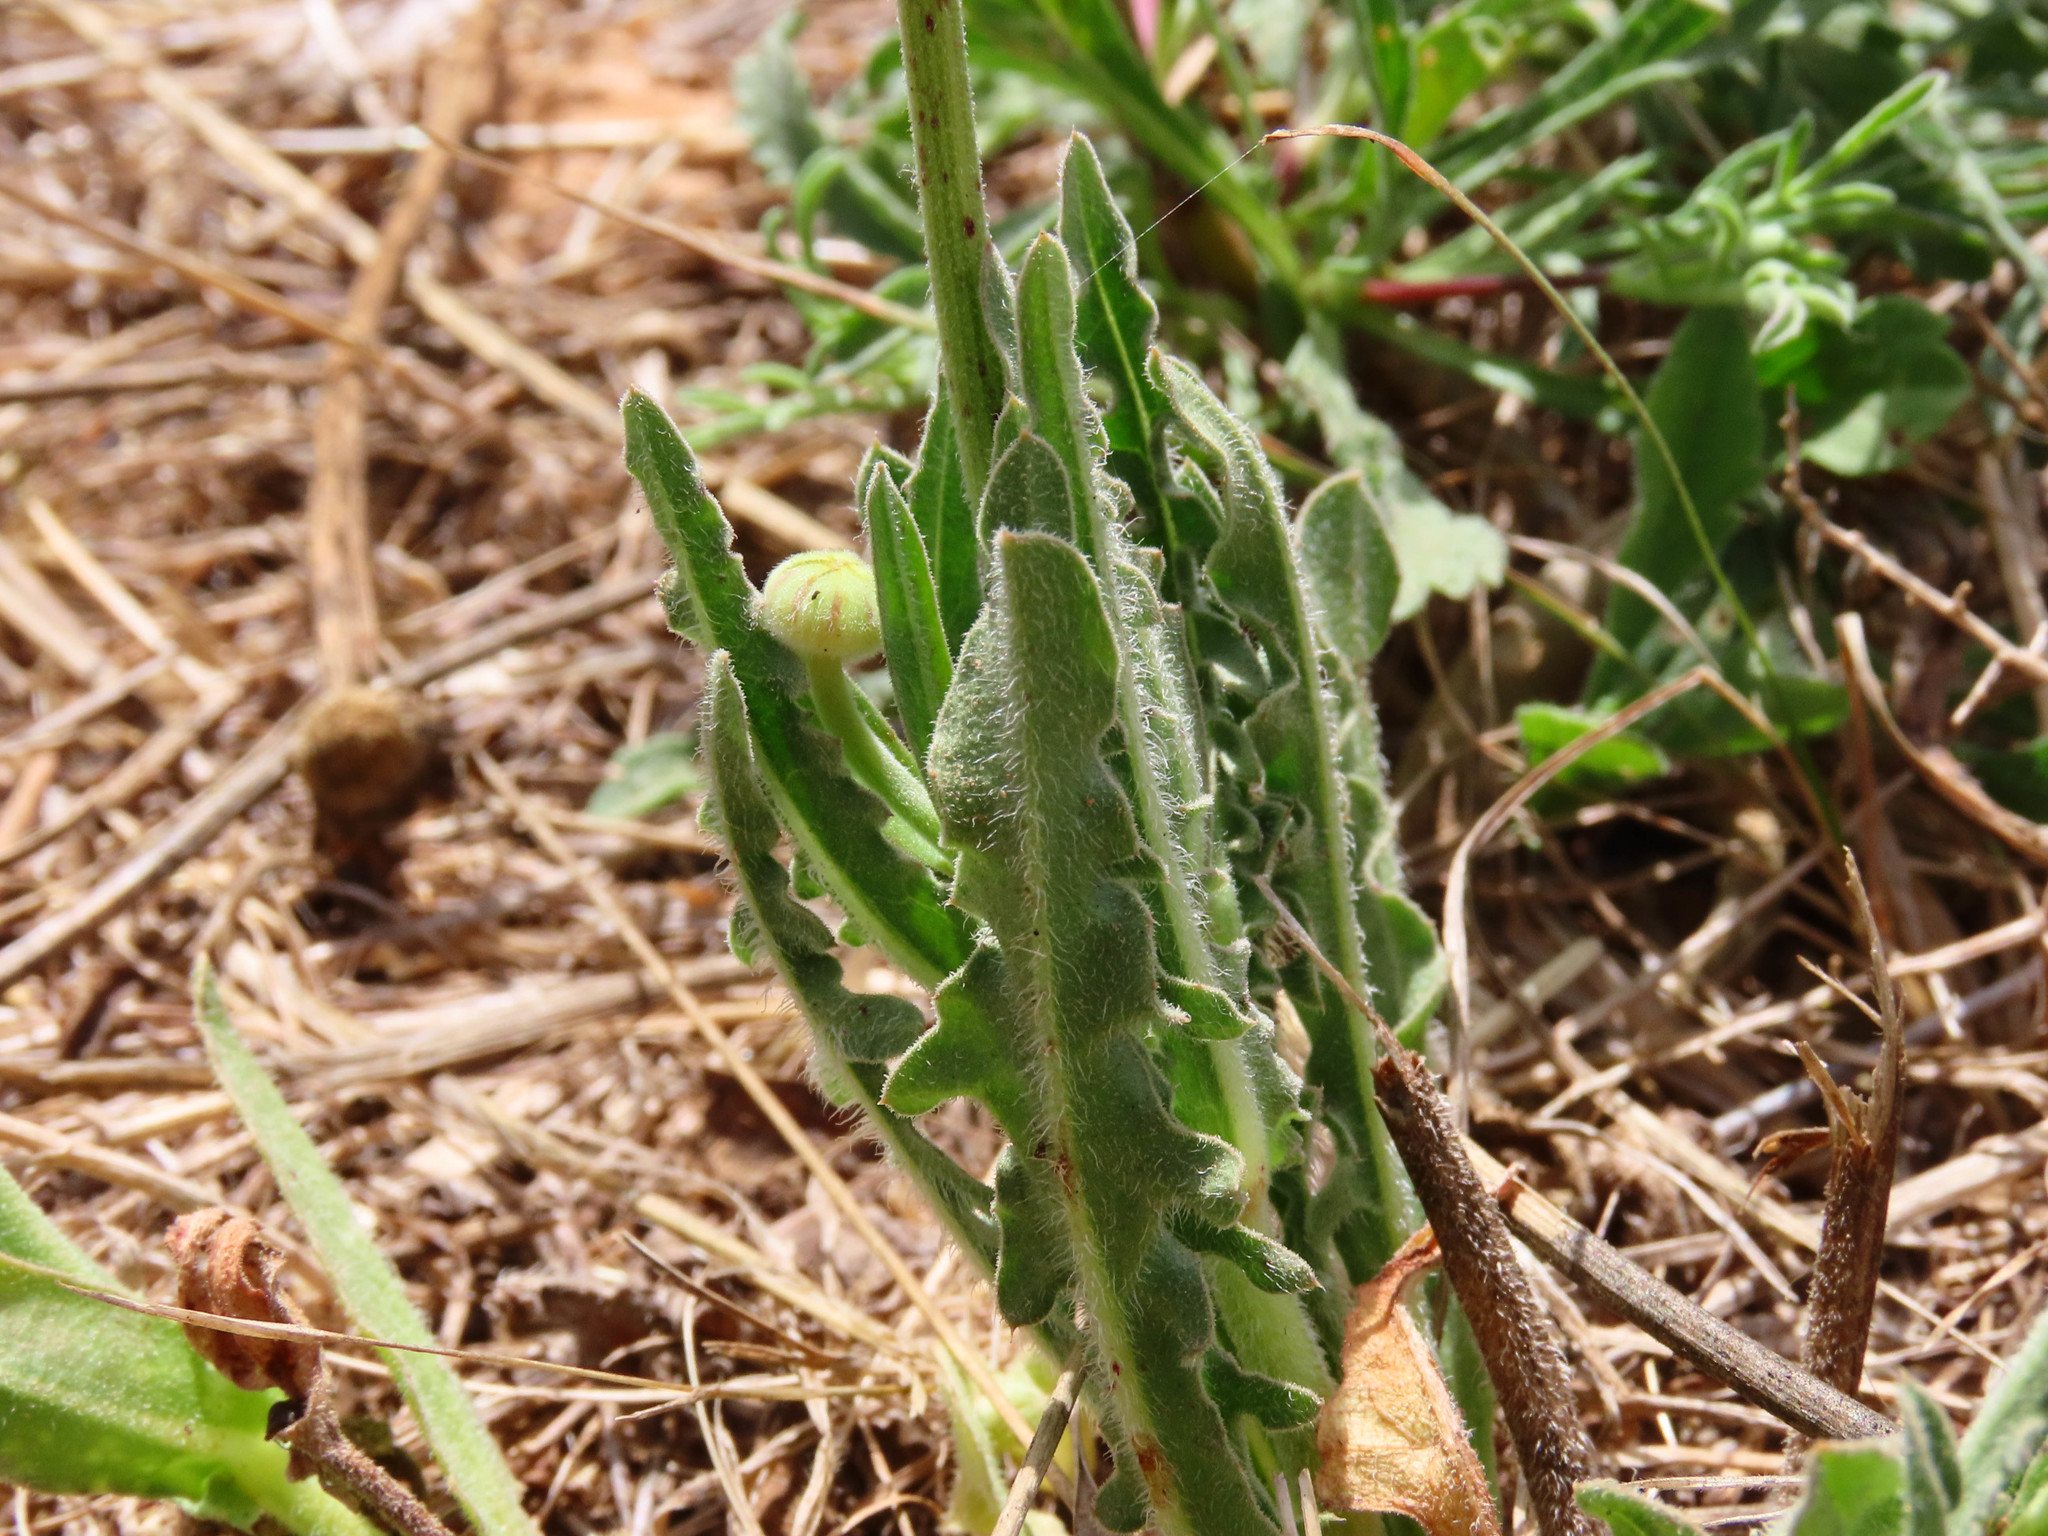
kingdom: Plantae
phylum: Tracheophyta
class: Magnoliopsida
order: Asterales
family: Asteraceae
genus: Urospermum
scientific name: Urospermum dalechampii
